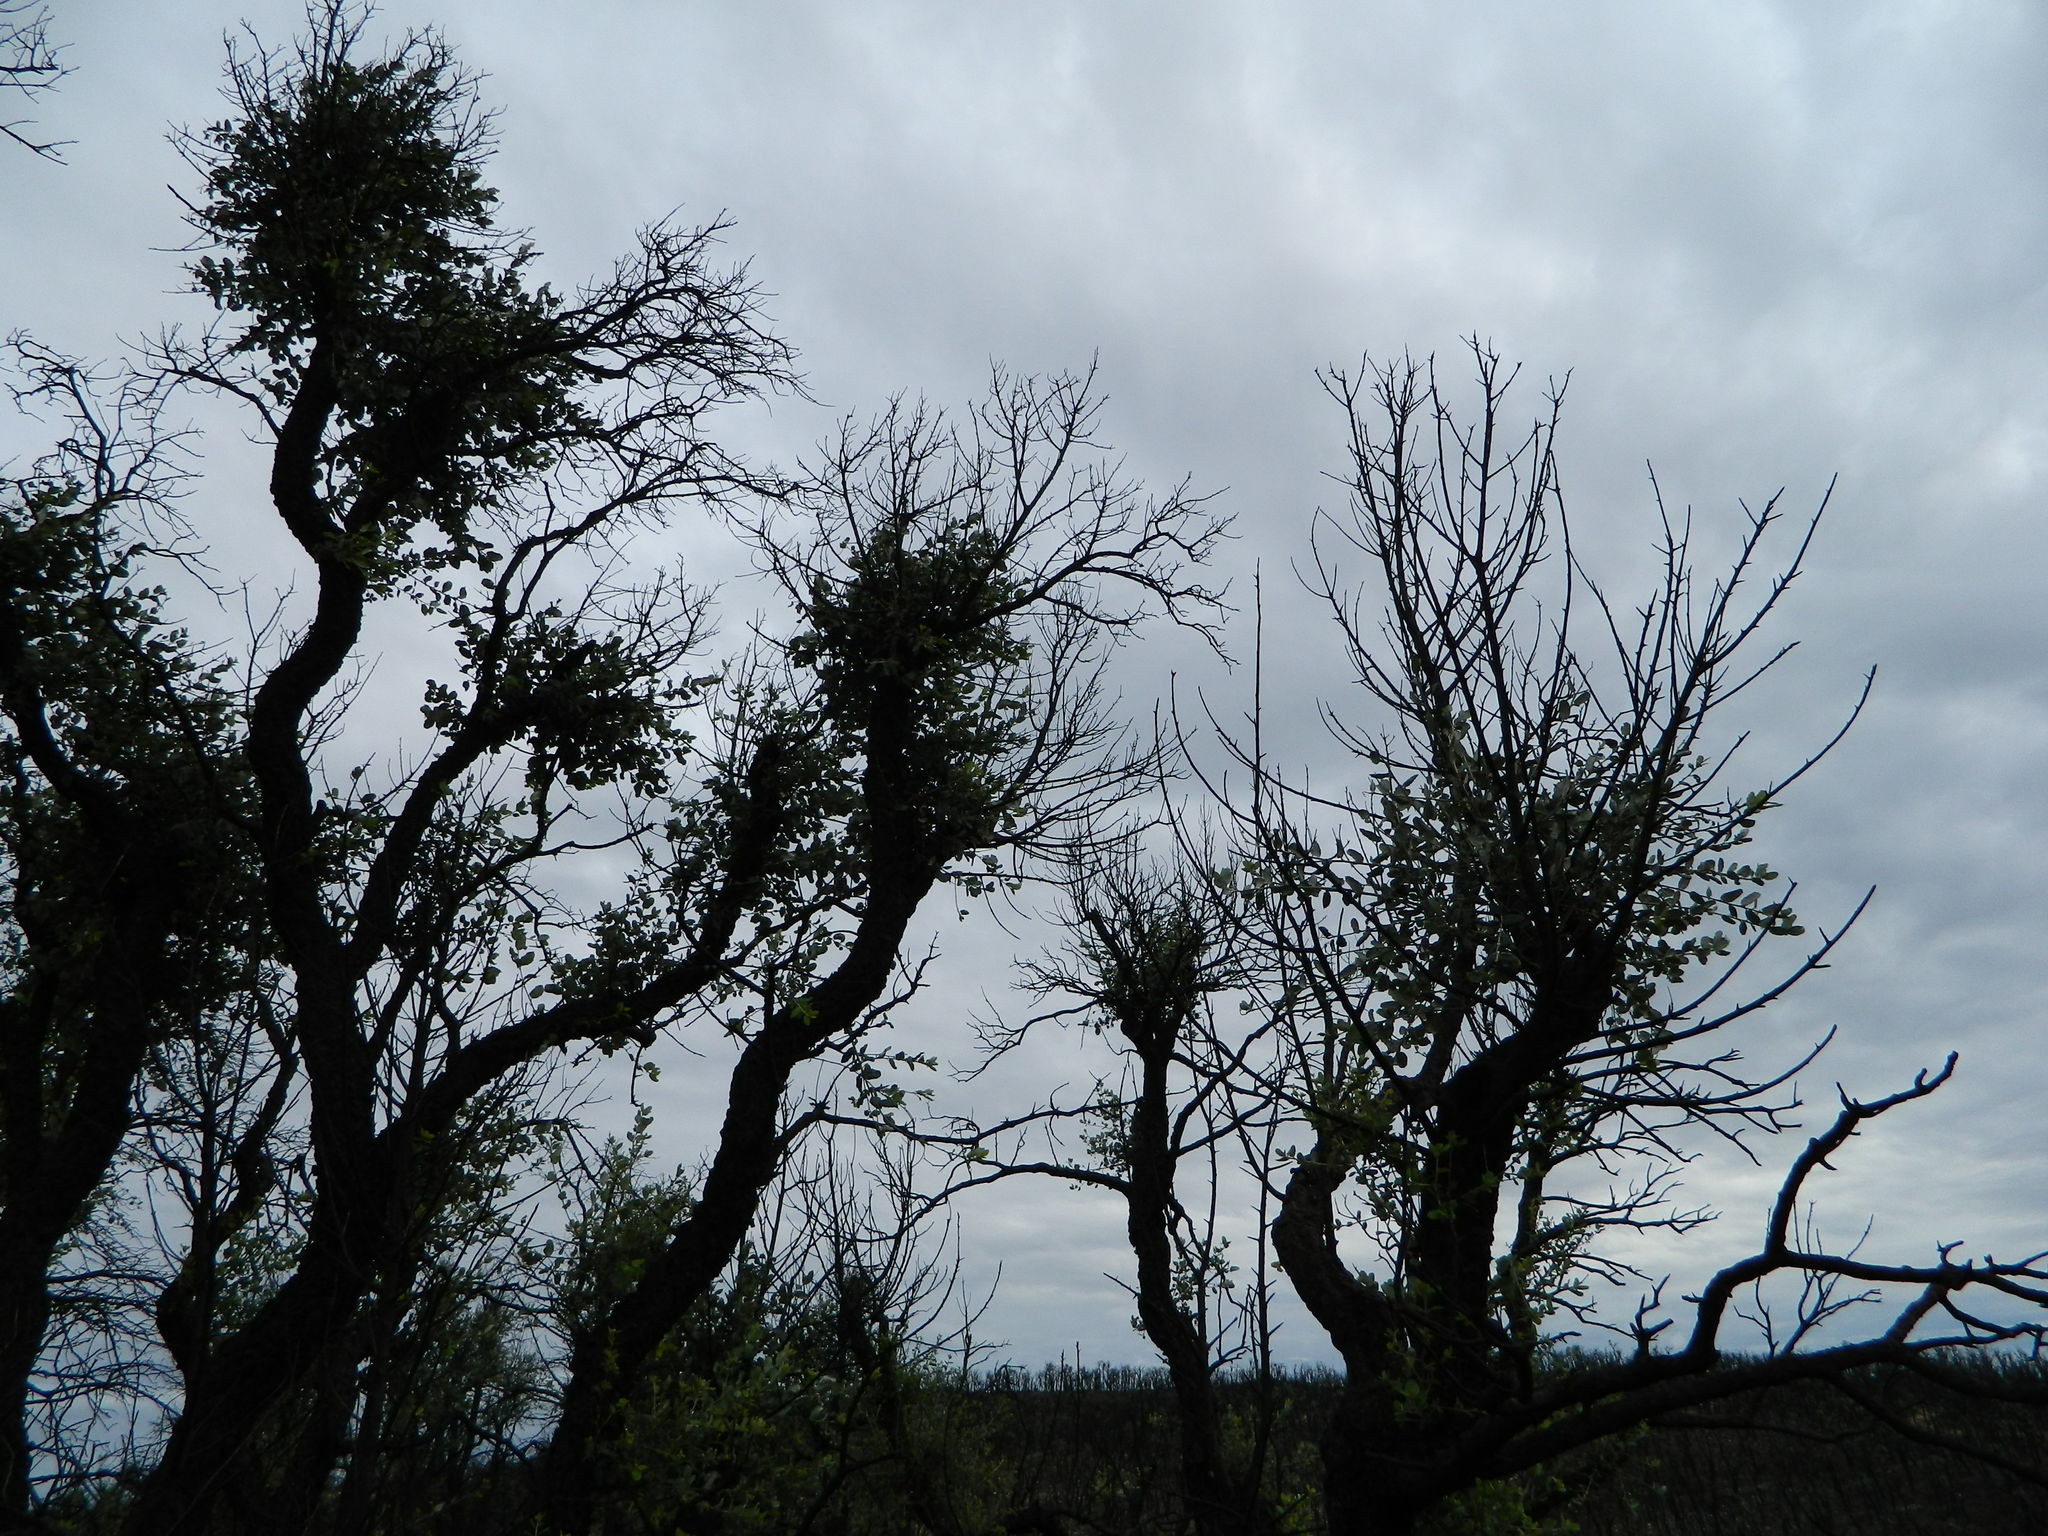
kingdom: Plantae
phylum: Tracheophyta
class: Magnoliopsida
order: Fagales
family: Fagaceae
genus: Quercus
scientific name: Quercus suber
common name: Cork oak
